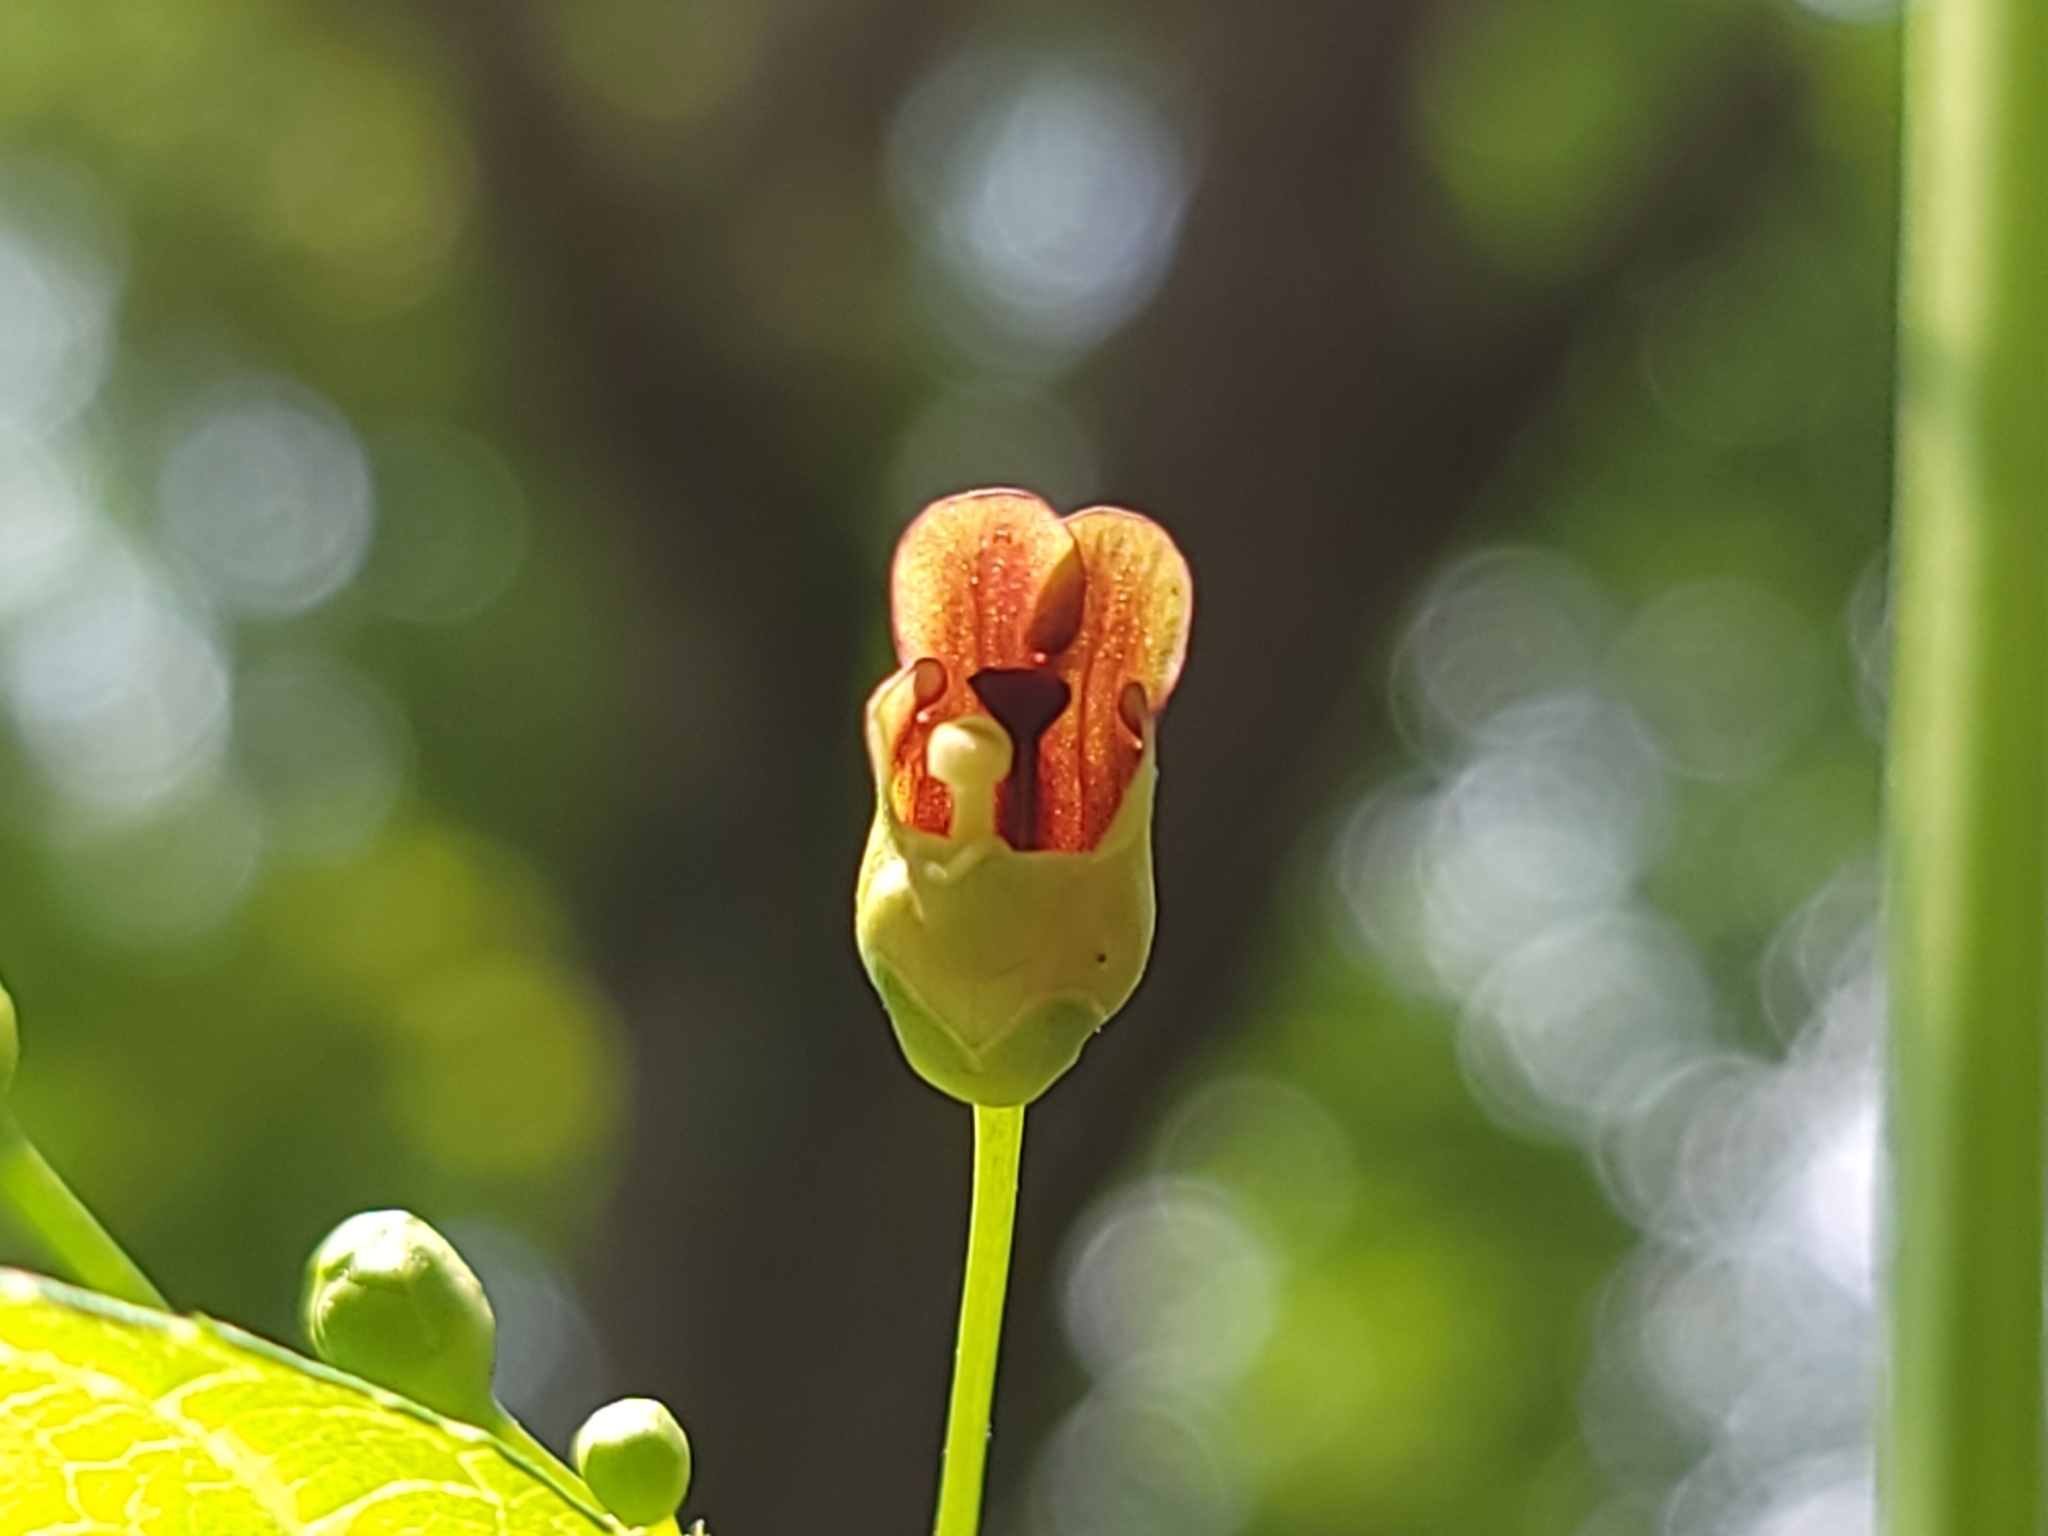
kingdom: Plantae
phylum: Tracheophyta
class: Magnoliopsida
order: Lamiales
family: Scrophulariaceae
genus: Scrophularia
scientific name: Scrophularia marilandica
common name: Eastern figwort
